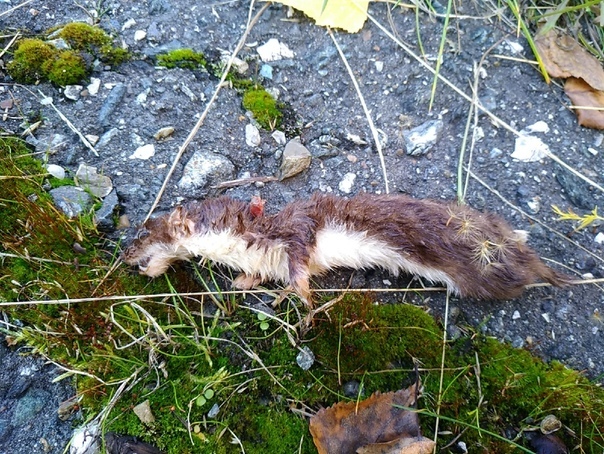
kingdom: Animalia
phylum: Chordata
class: Mammalia
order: Carnivora
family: Mustelidae
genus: Mustela
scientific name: Mustela nivalis
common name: Least weasel
